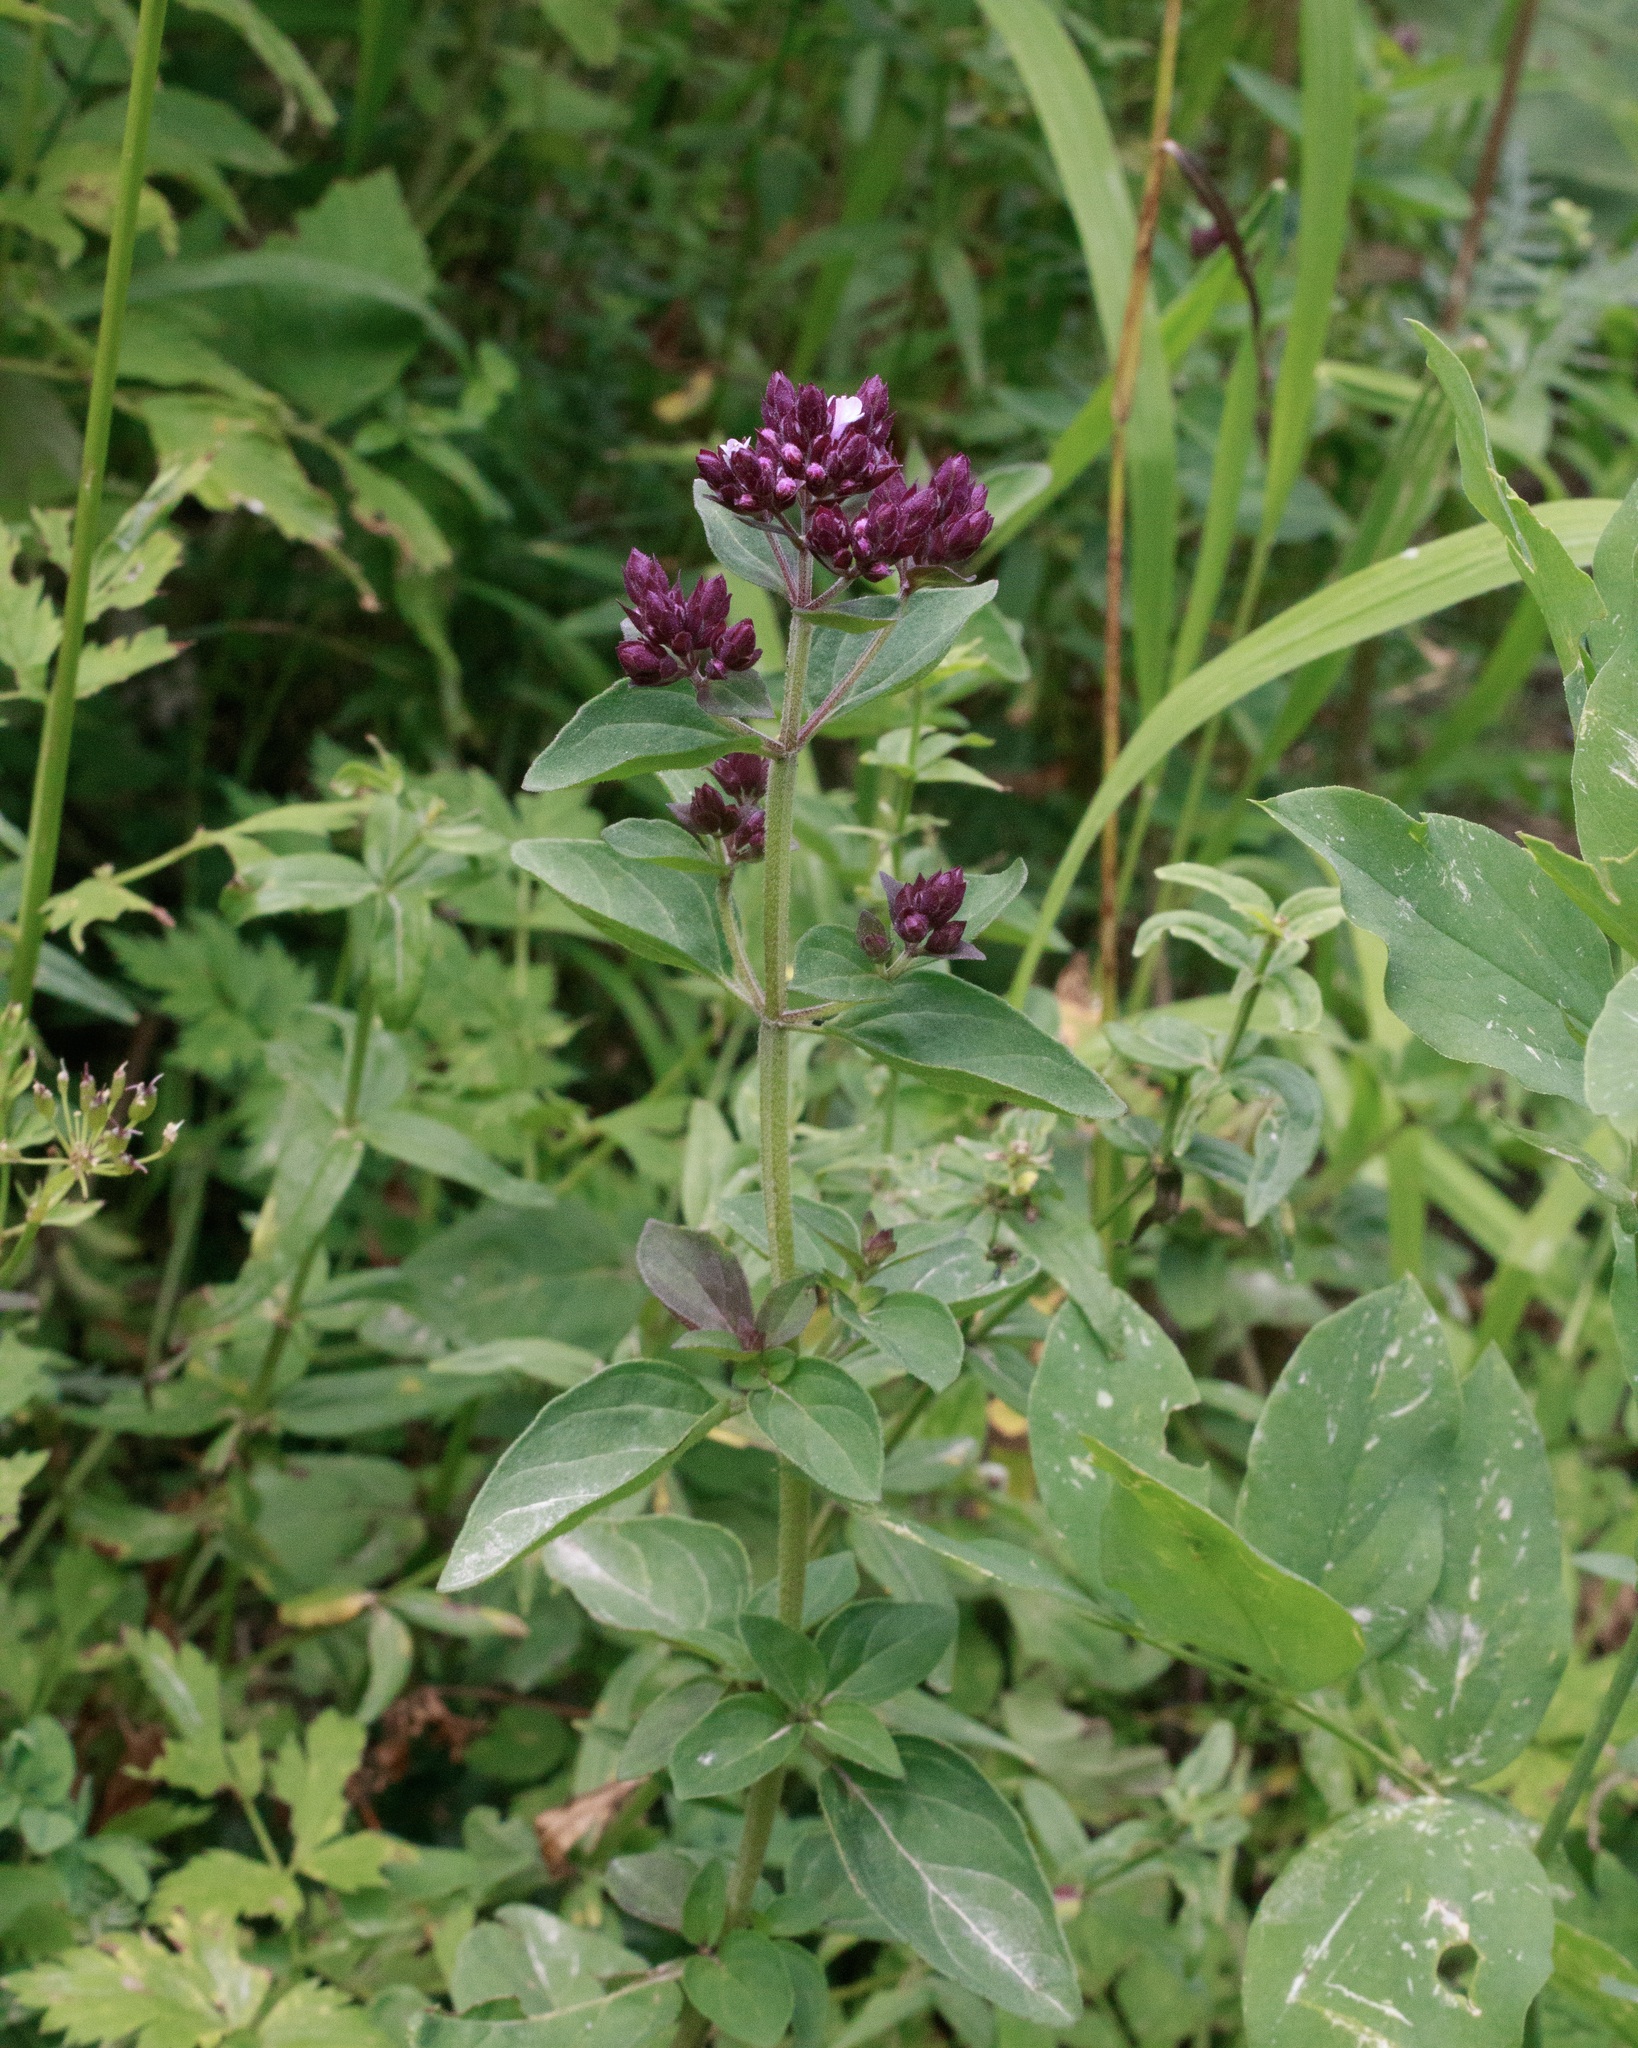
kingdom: Plantae
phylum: Tracheophyta
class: Magnoliopsida
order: Lamiales
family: Lamiaceae
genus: Origanum
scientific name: Origanum vulgare
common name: Wild marjoram
